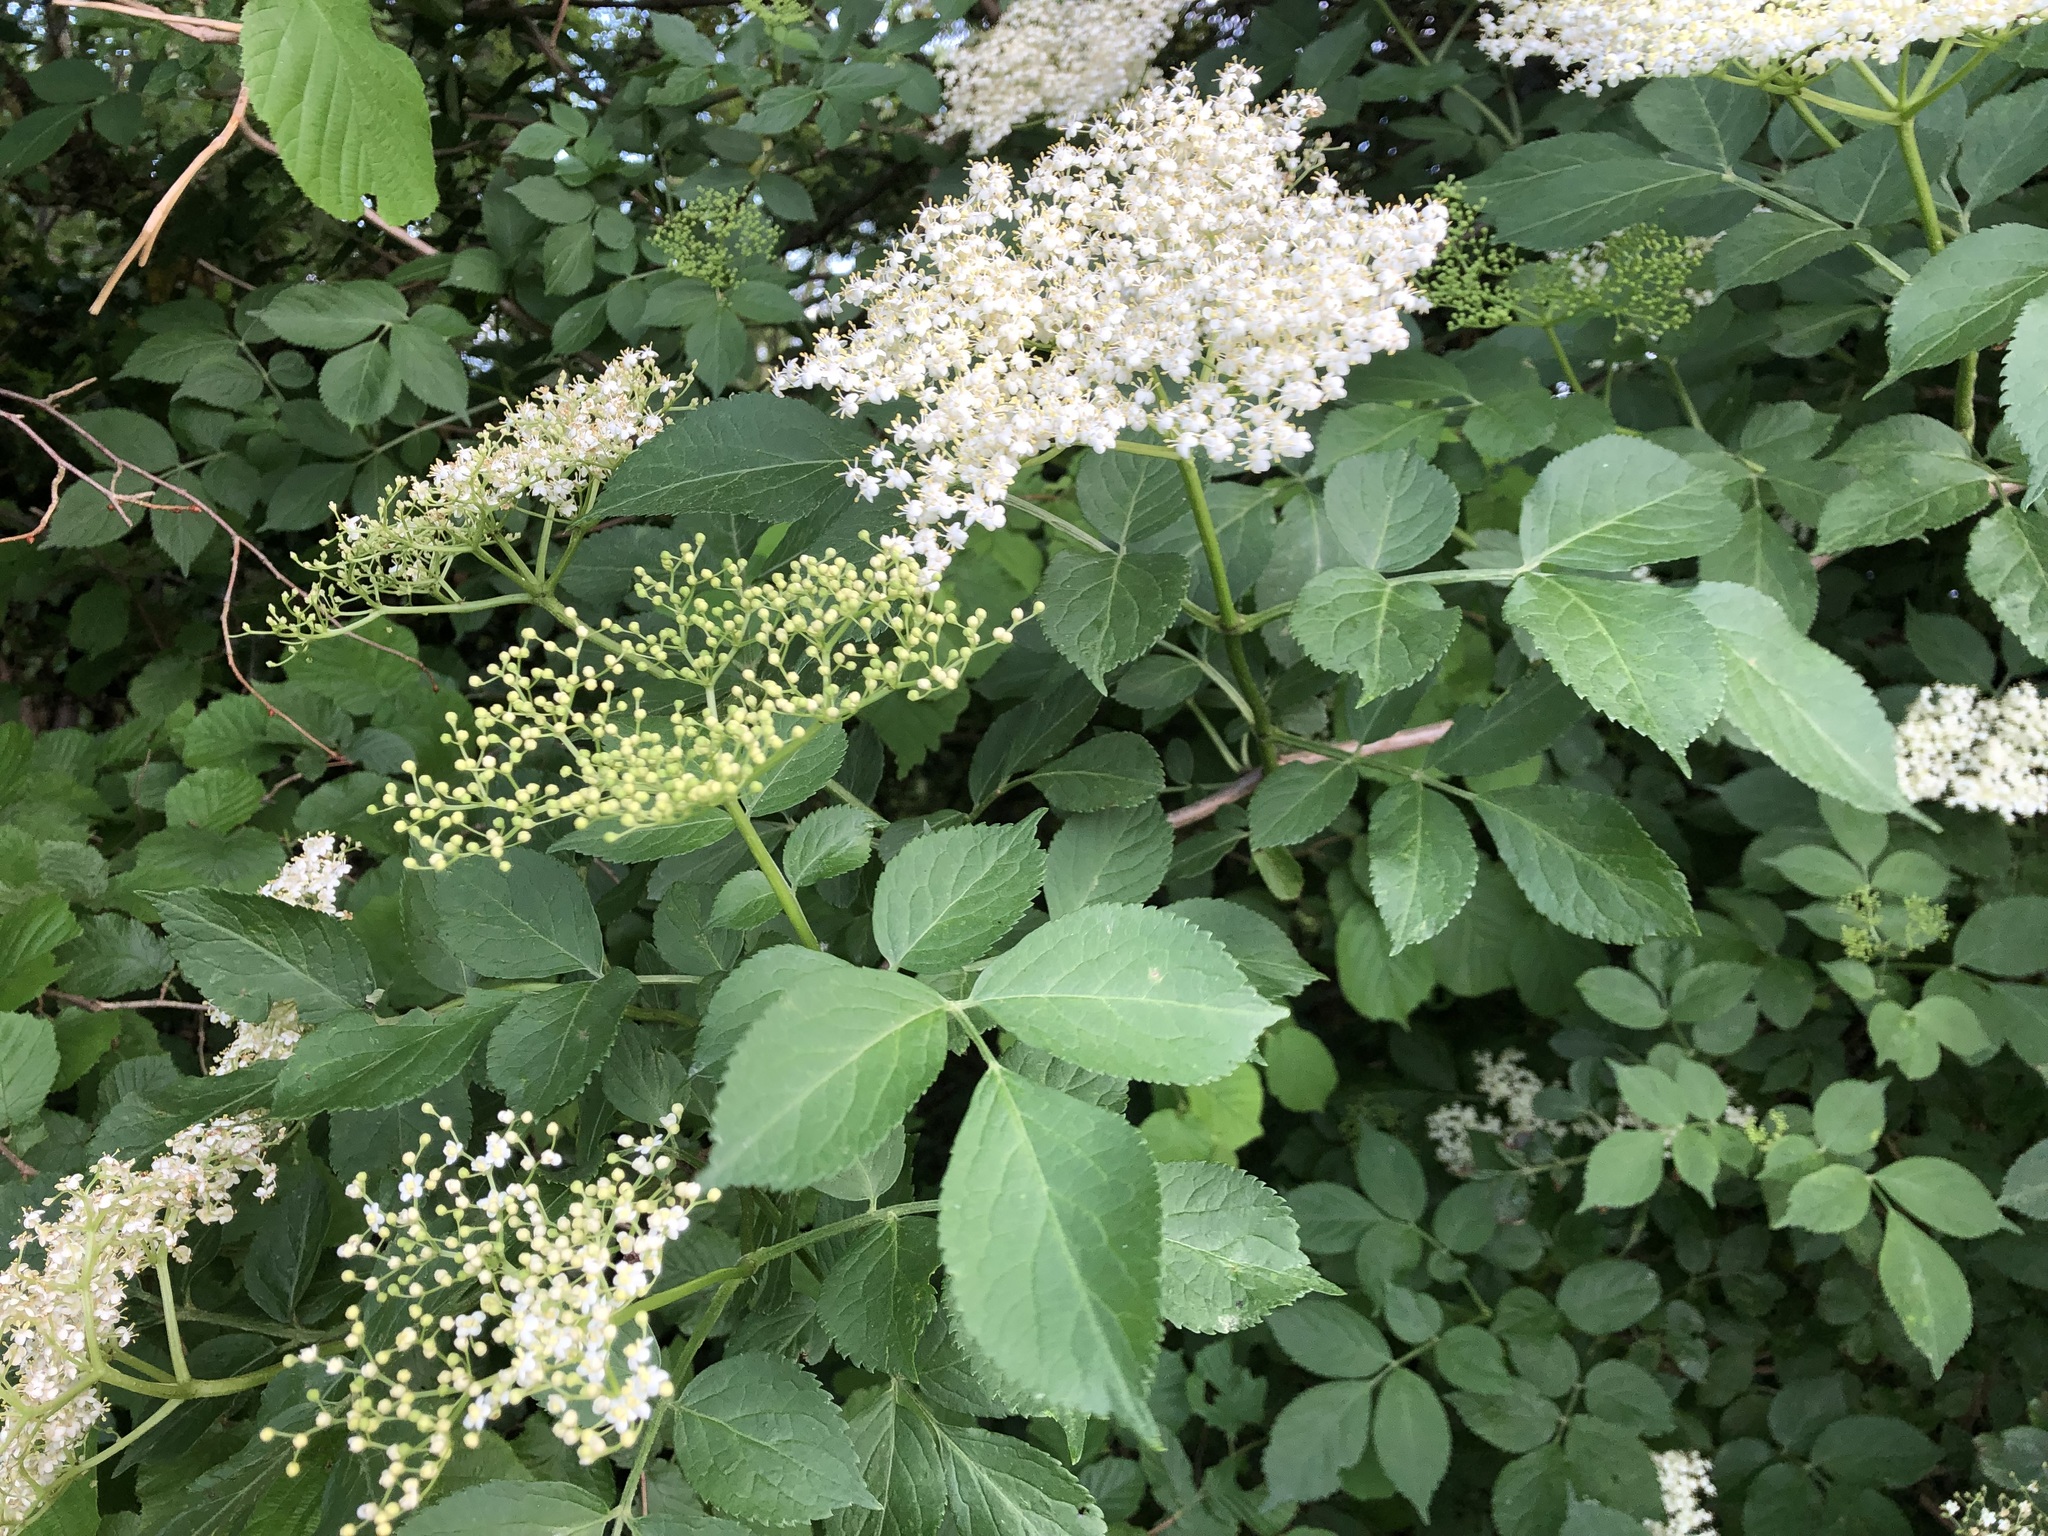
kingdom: Plantae
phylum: Tracheophyta
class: Magnoliopsida
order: Dipsacales
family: Viburnaceae
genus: Sambucus
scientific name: Sambucus nigra
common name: Elder
